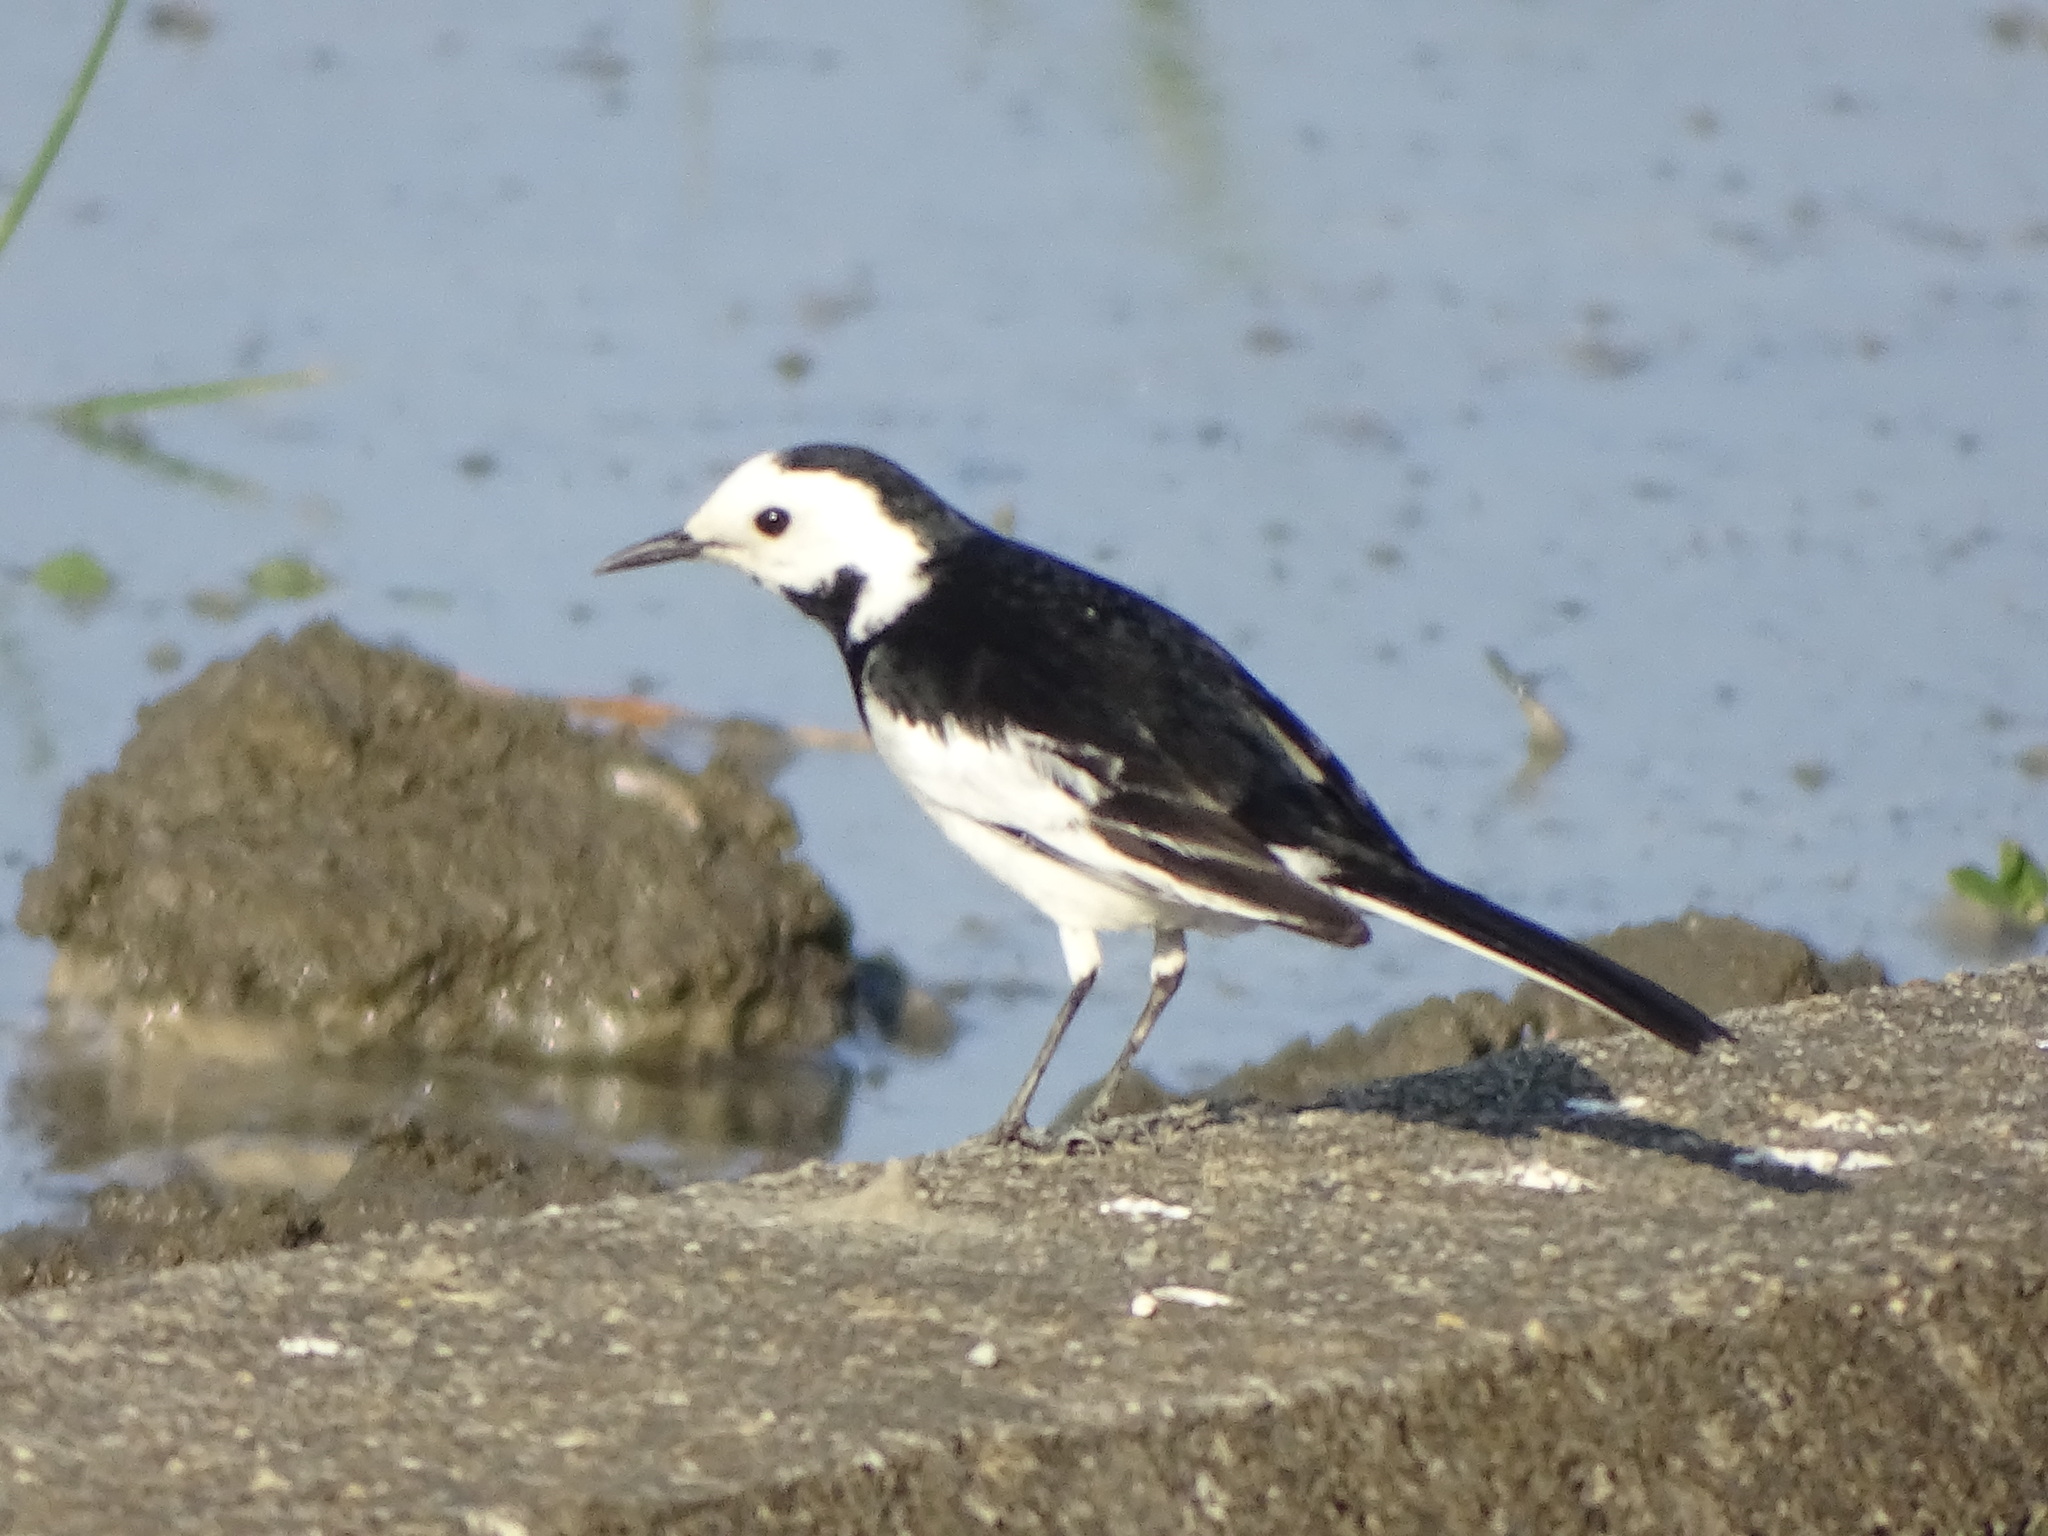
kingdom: Animalia
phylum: Chordata
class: Aves
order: Passeriformes
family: Motacillidae
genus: Motacilla
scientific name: Motacilla alba
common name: White wagtail
